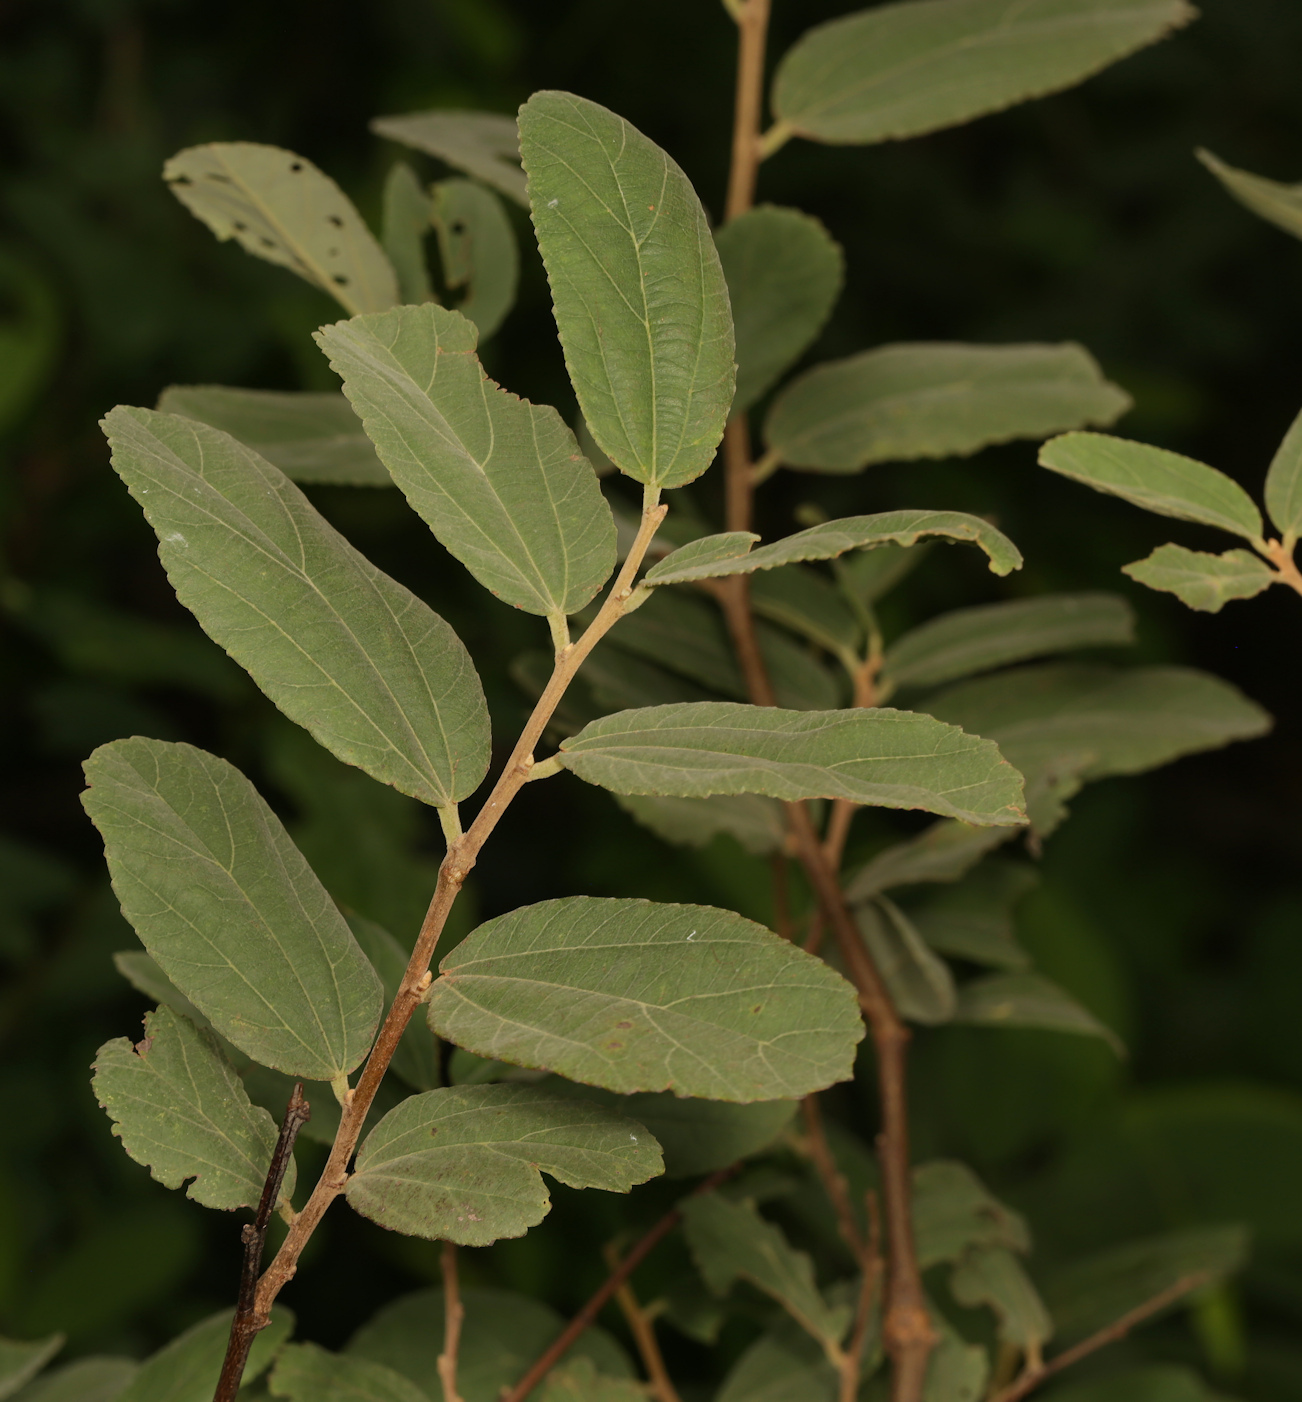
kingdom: Plantae
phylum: Tracheophyta
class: Magnoliopsida
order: Malvales
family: Malvaceae
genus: Grewia
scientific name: Grewia flava
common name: Brandy bush
